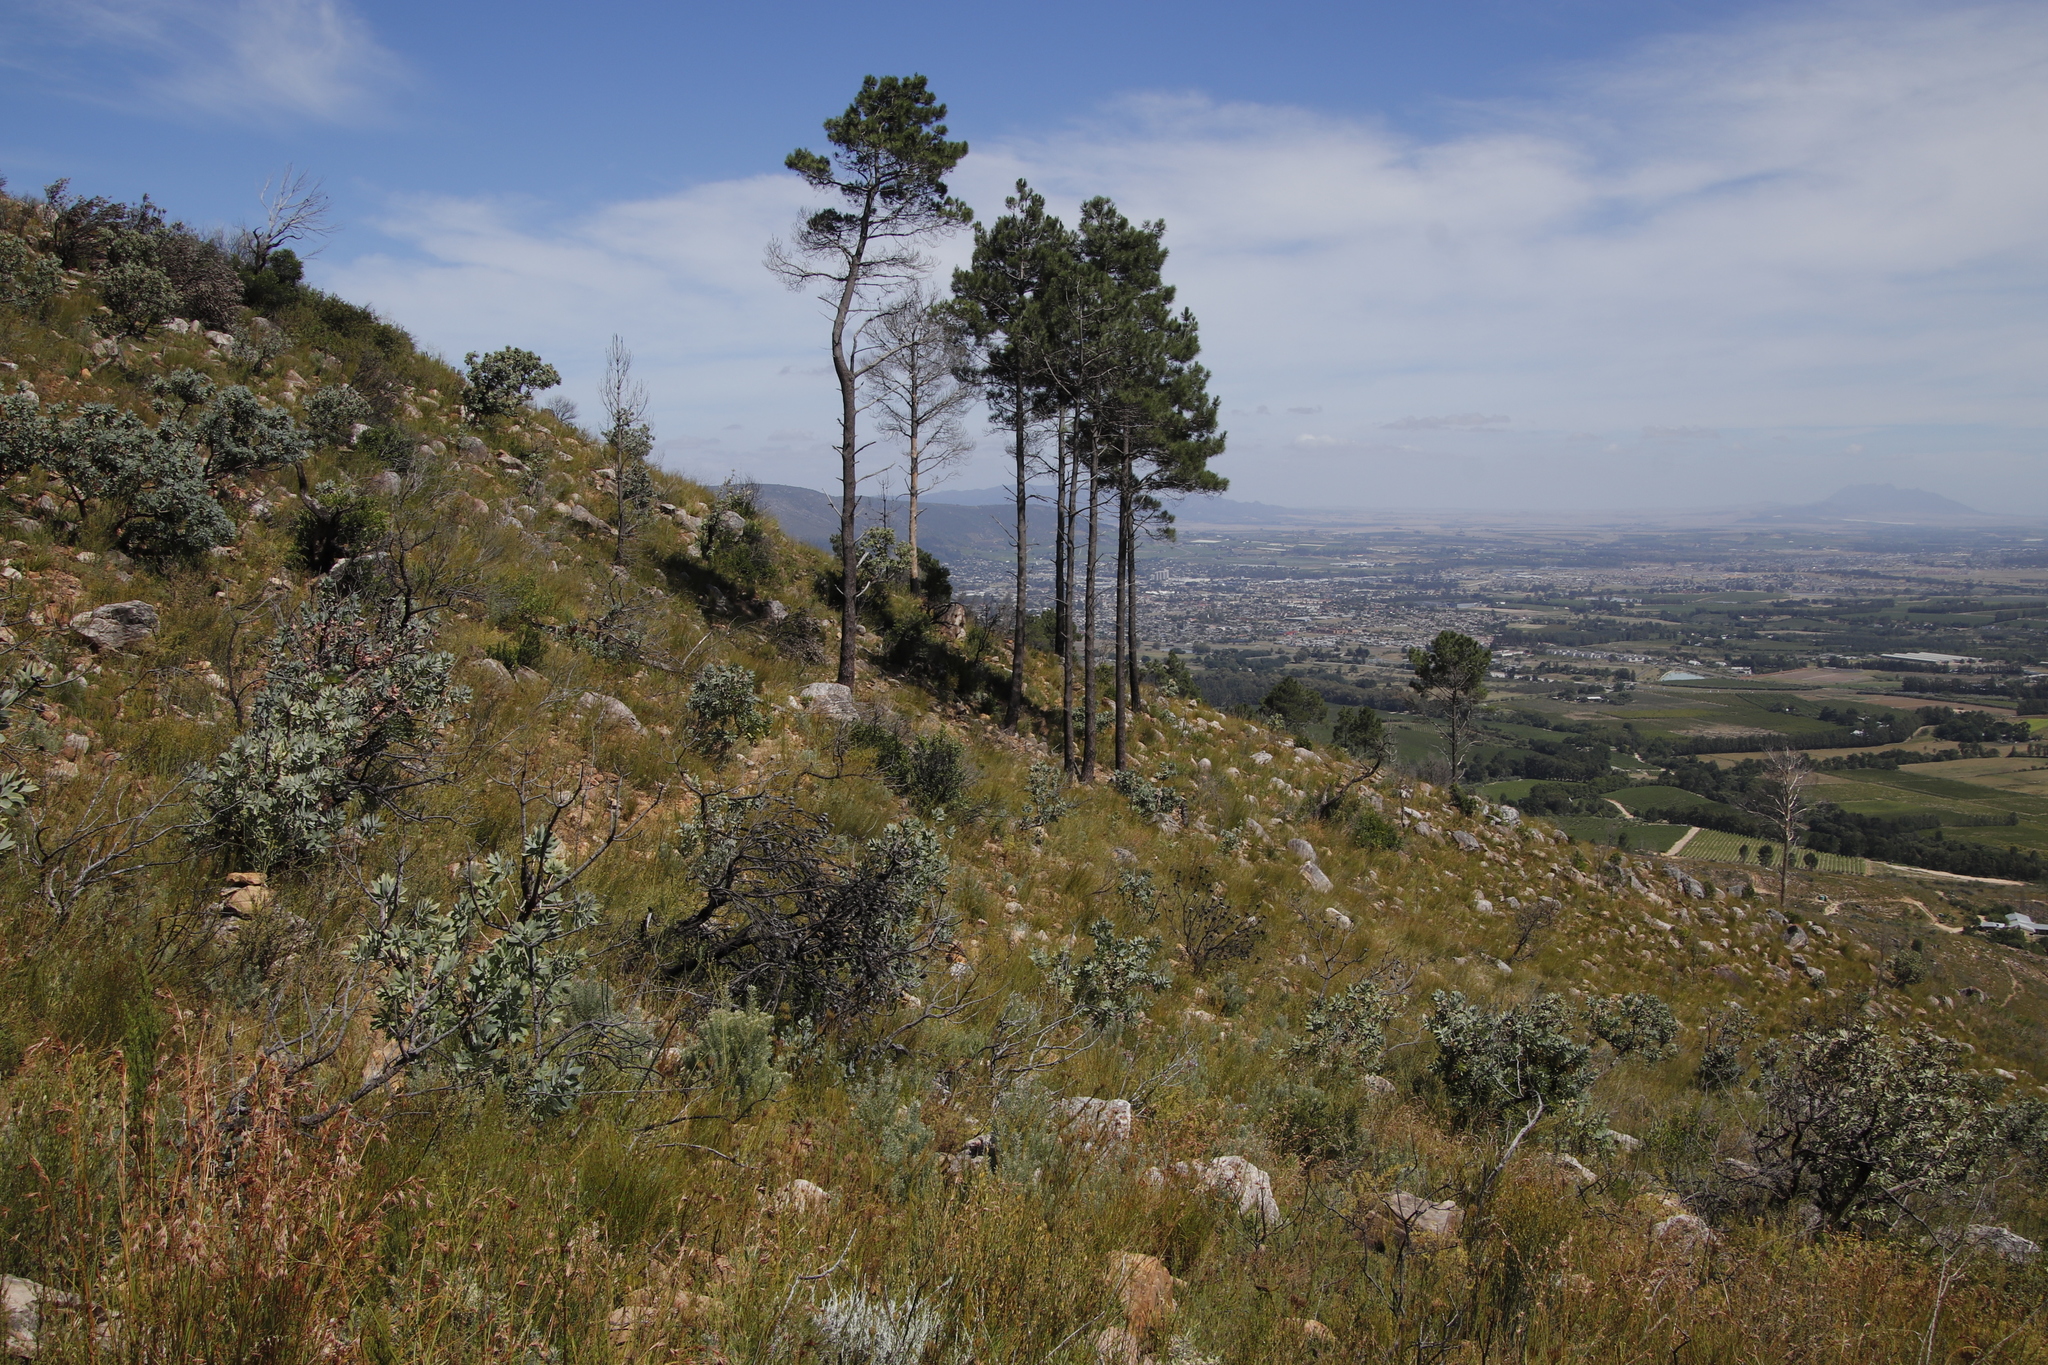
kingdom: Plantae
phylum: Tracheophyta
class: Pinopsida
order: Pinales
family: Pinaceae
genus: Pinus
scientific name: Pinus pinaster
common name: Maritime pine
